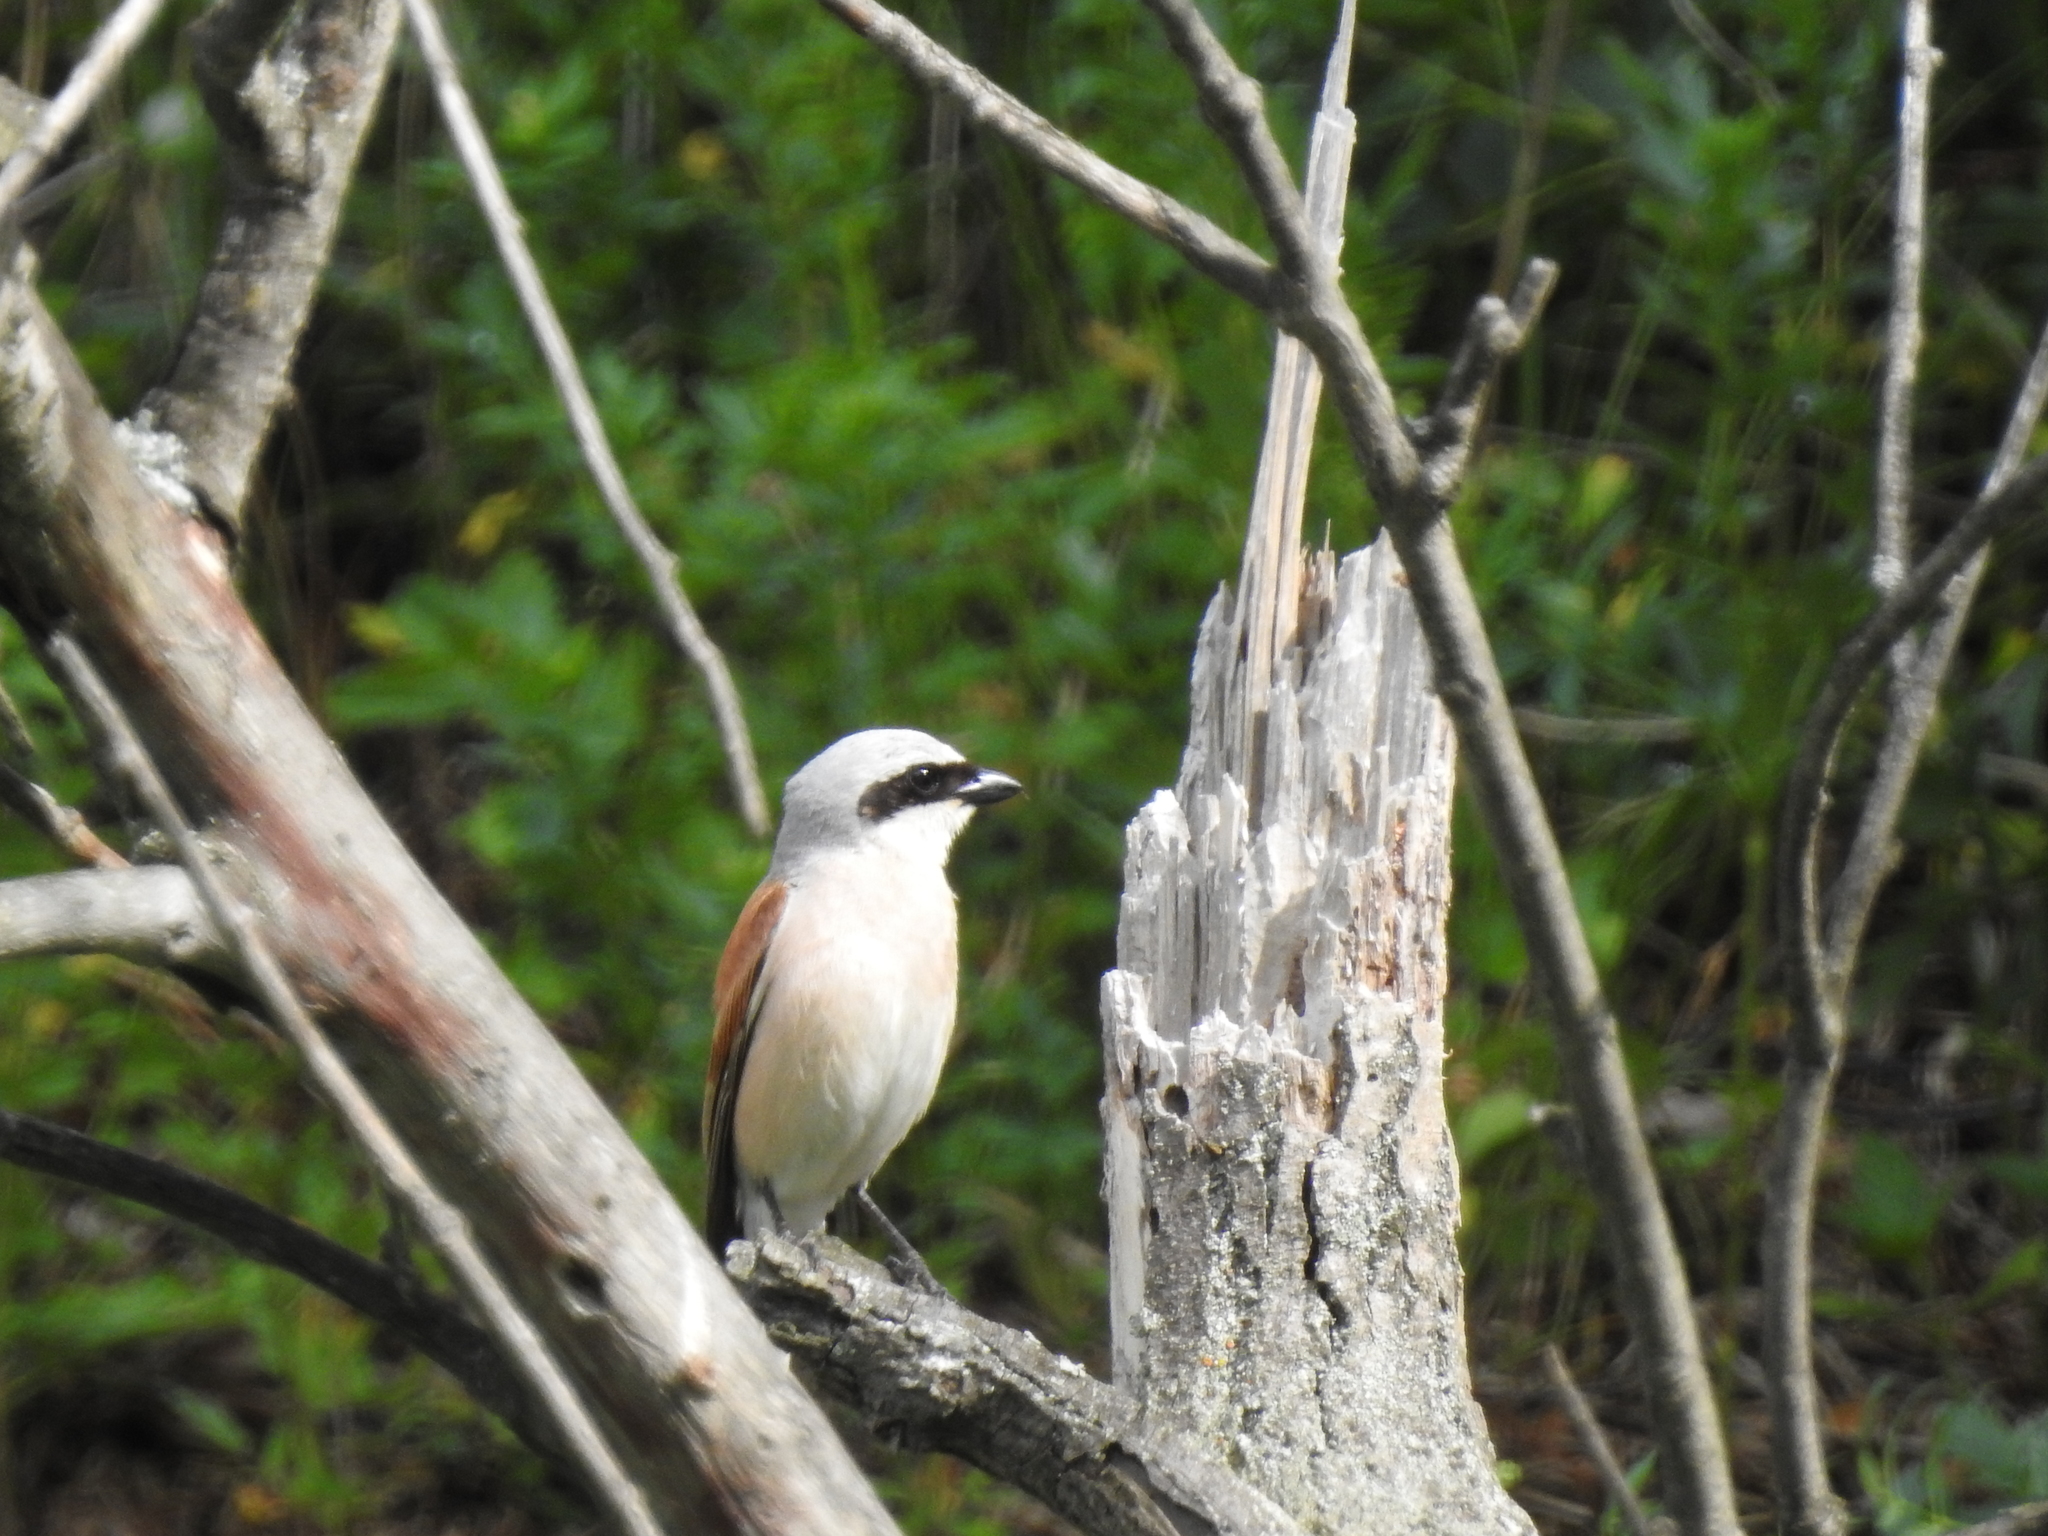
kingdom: Animalia
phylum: Chordata
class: Aves
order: Passeriformes
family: Laniidae
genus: Lanius
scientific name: Lanius collurio
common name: Red-backed shrike
